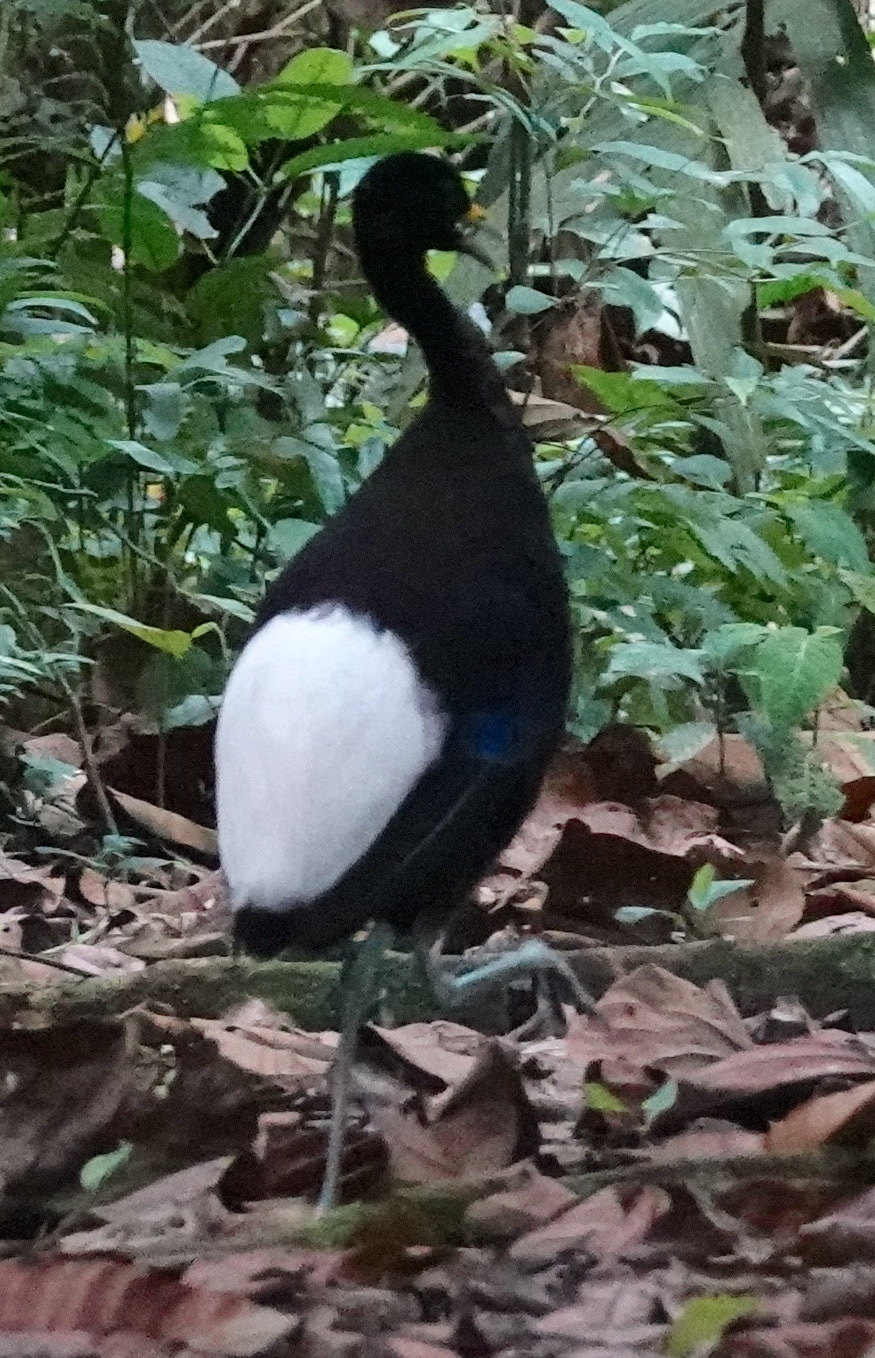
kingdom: Animalia
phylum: Chordata
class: Aves
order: Gruiformes
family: Psophiidae
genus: Psophia
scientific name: Psophia leucoptera
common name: Pale-winged trumpeter
